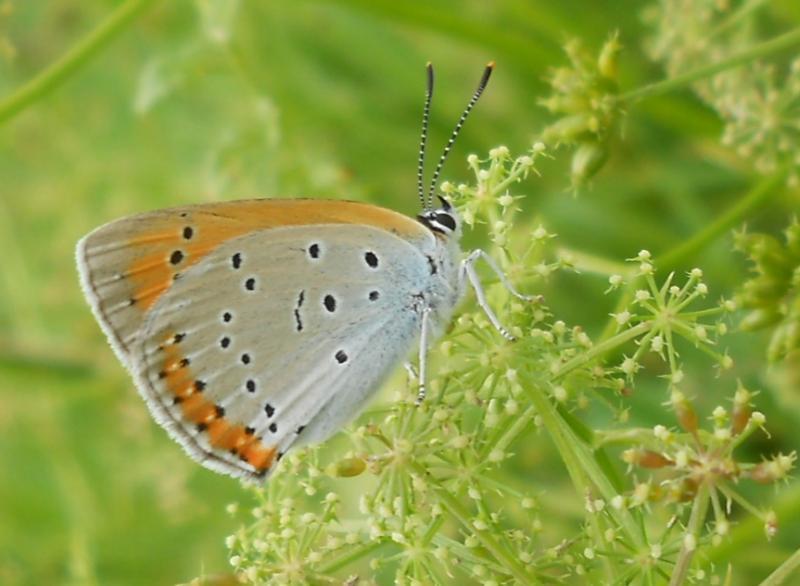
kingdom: Animalia
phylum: Arthropoda
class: Insecta
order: Lepidoptera
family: Lycaenidae
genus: Lycaena
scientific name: Lycaena dispar
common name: Large copper
